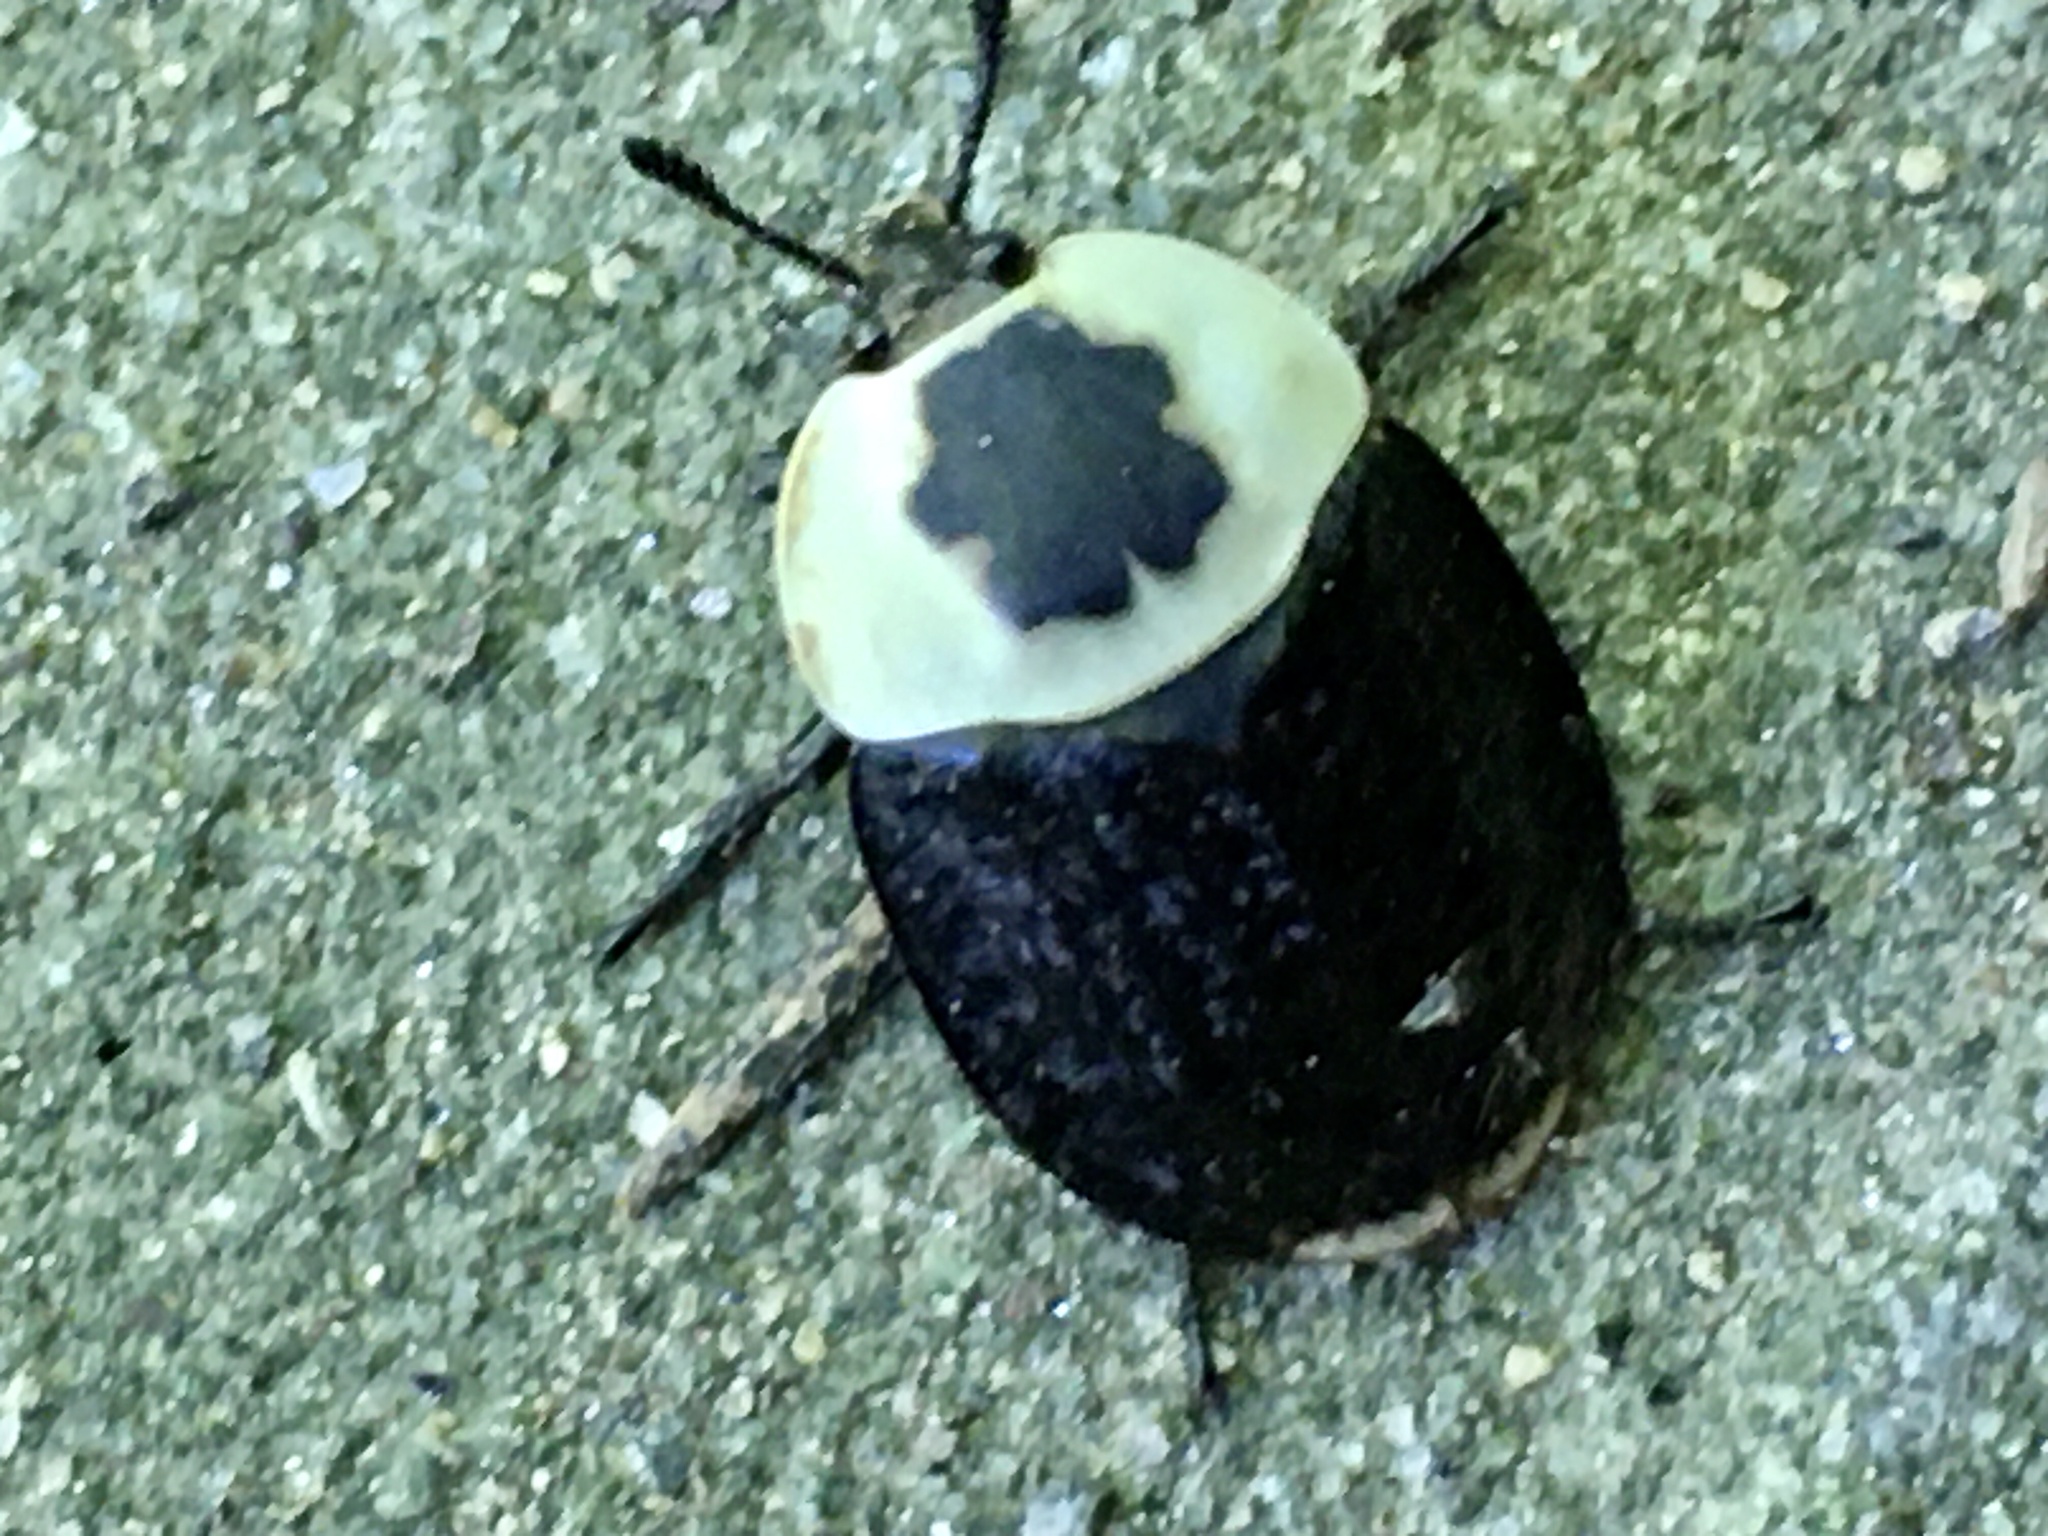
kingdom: Animalia
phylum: Arthropoda
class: Insecta
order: Coleoptera
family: Staphylinidae
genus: Necrophila
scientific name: Necrophila americana
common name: American carrion beetle
